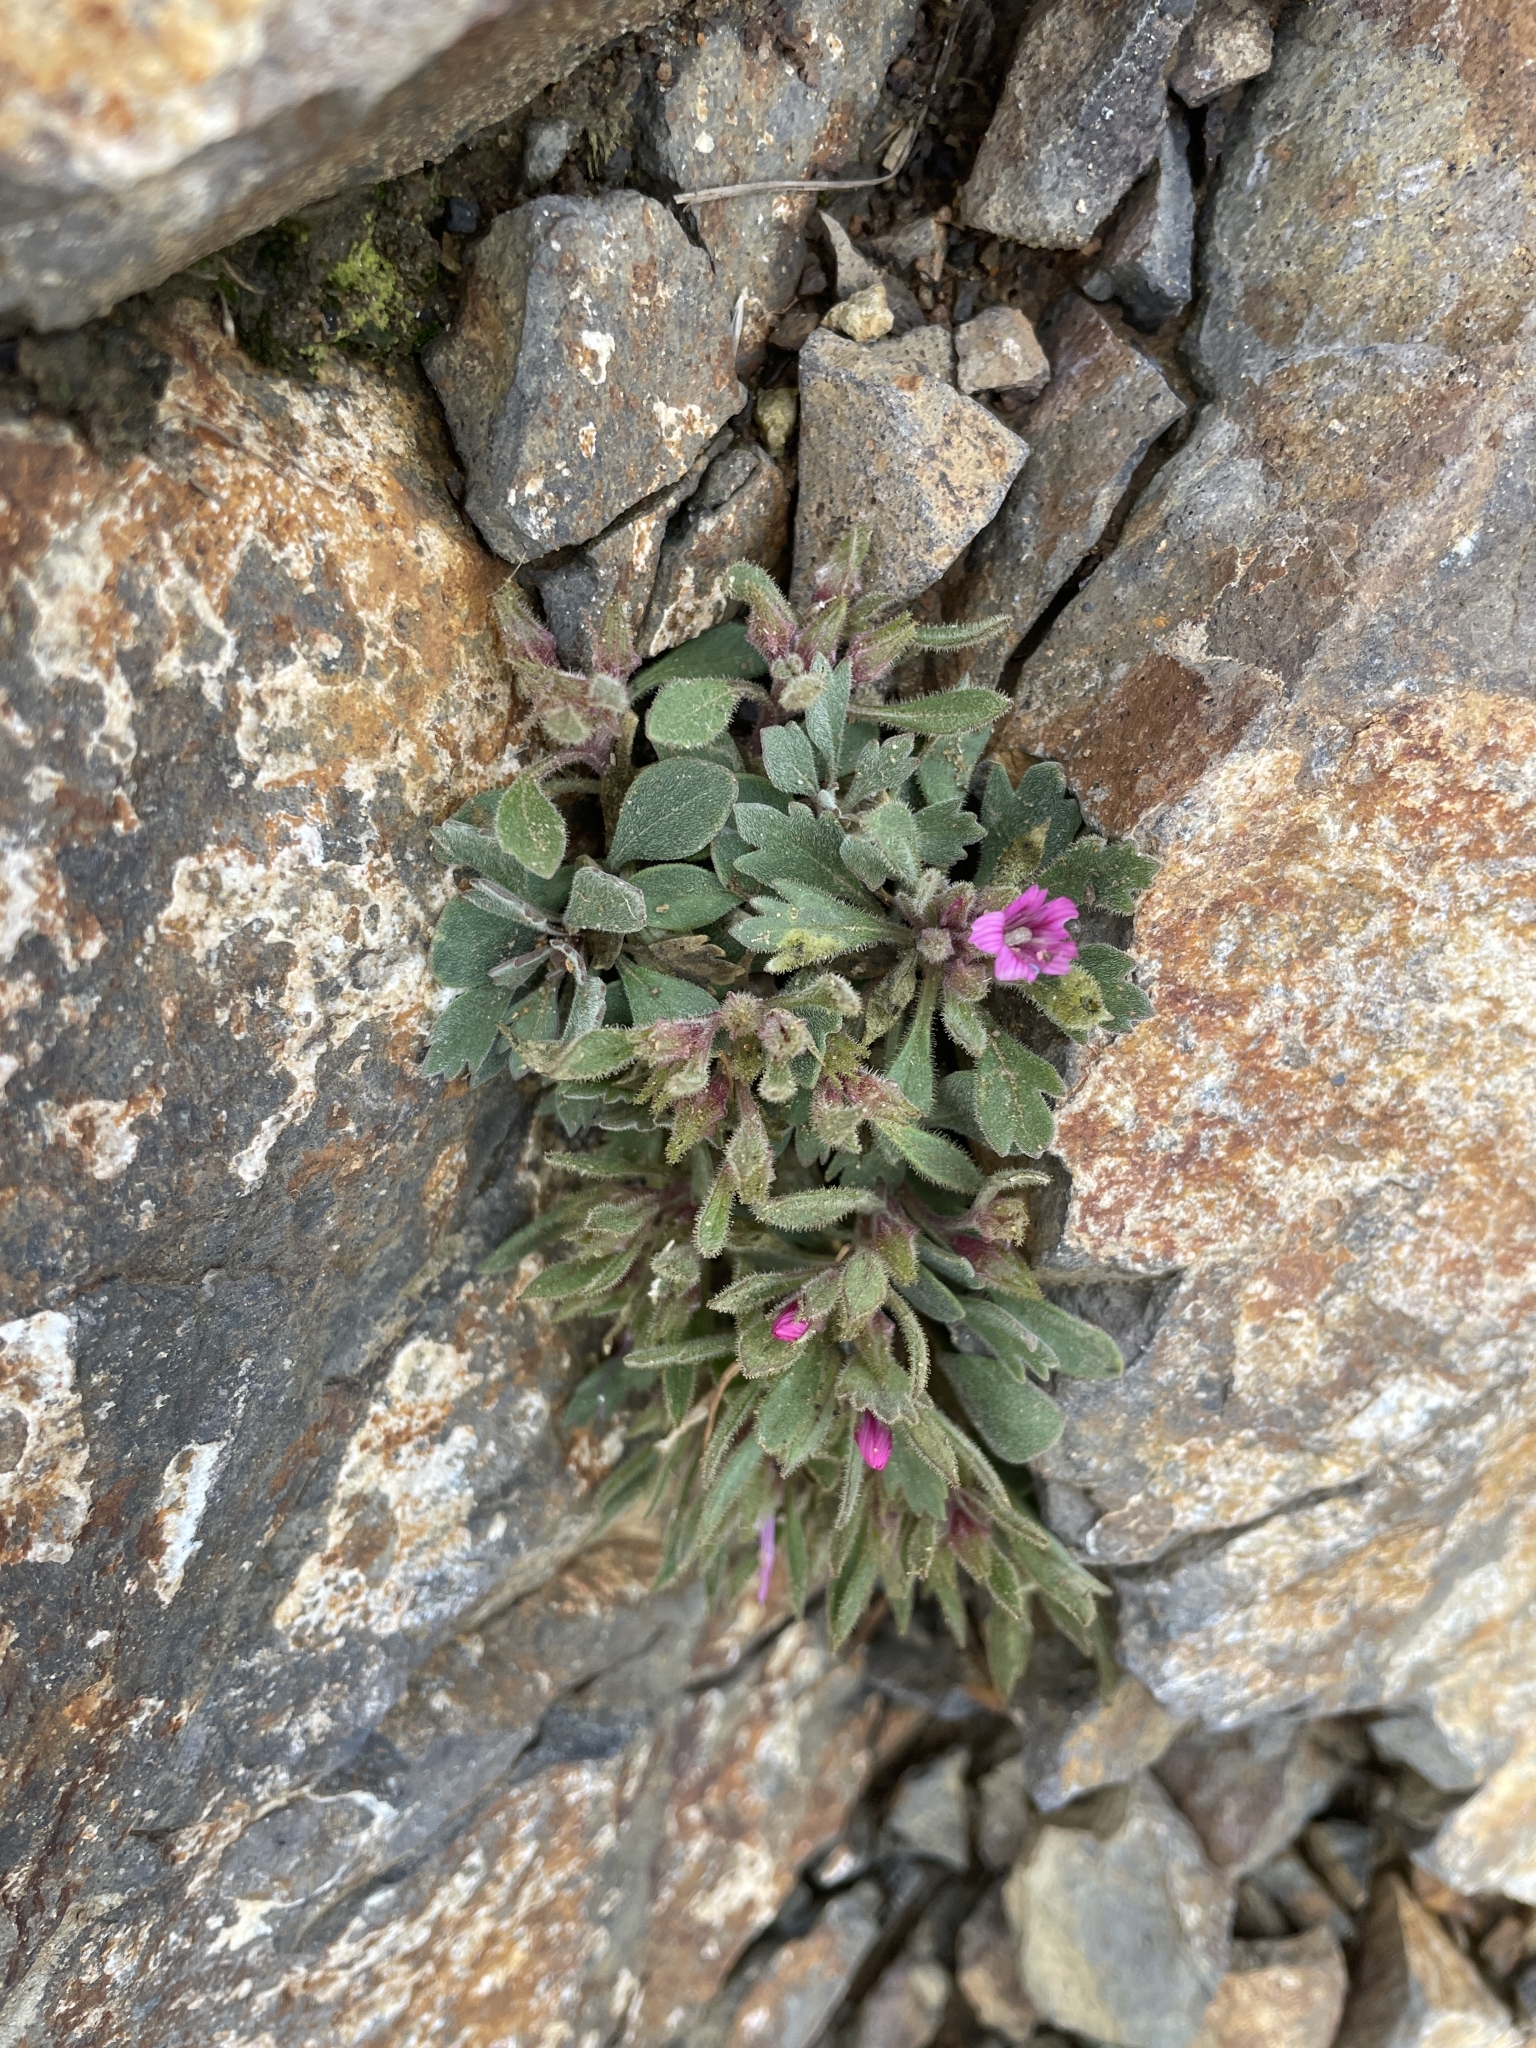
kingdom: Plantae
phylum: Tracheophyta
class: Magnoliopsida
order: Ericales
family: Polemoniaceae
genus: Collomia
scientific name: Collomia debilis
